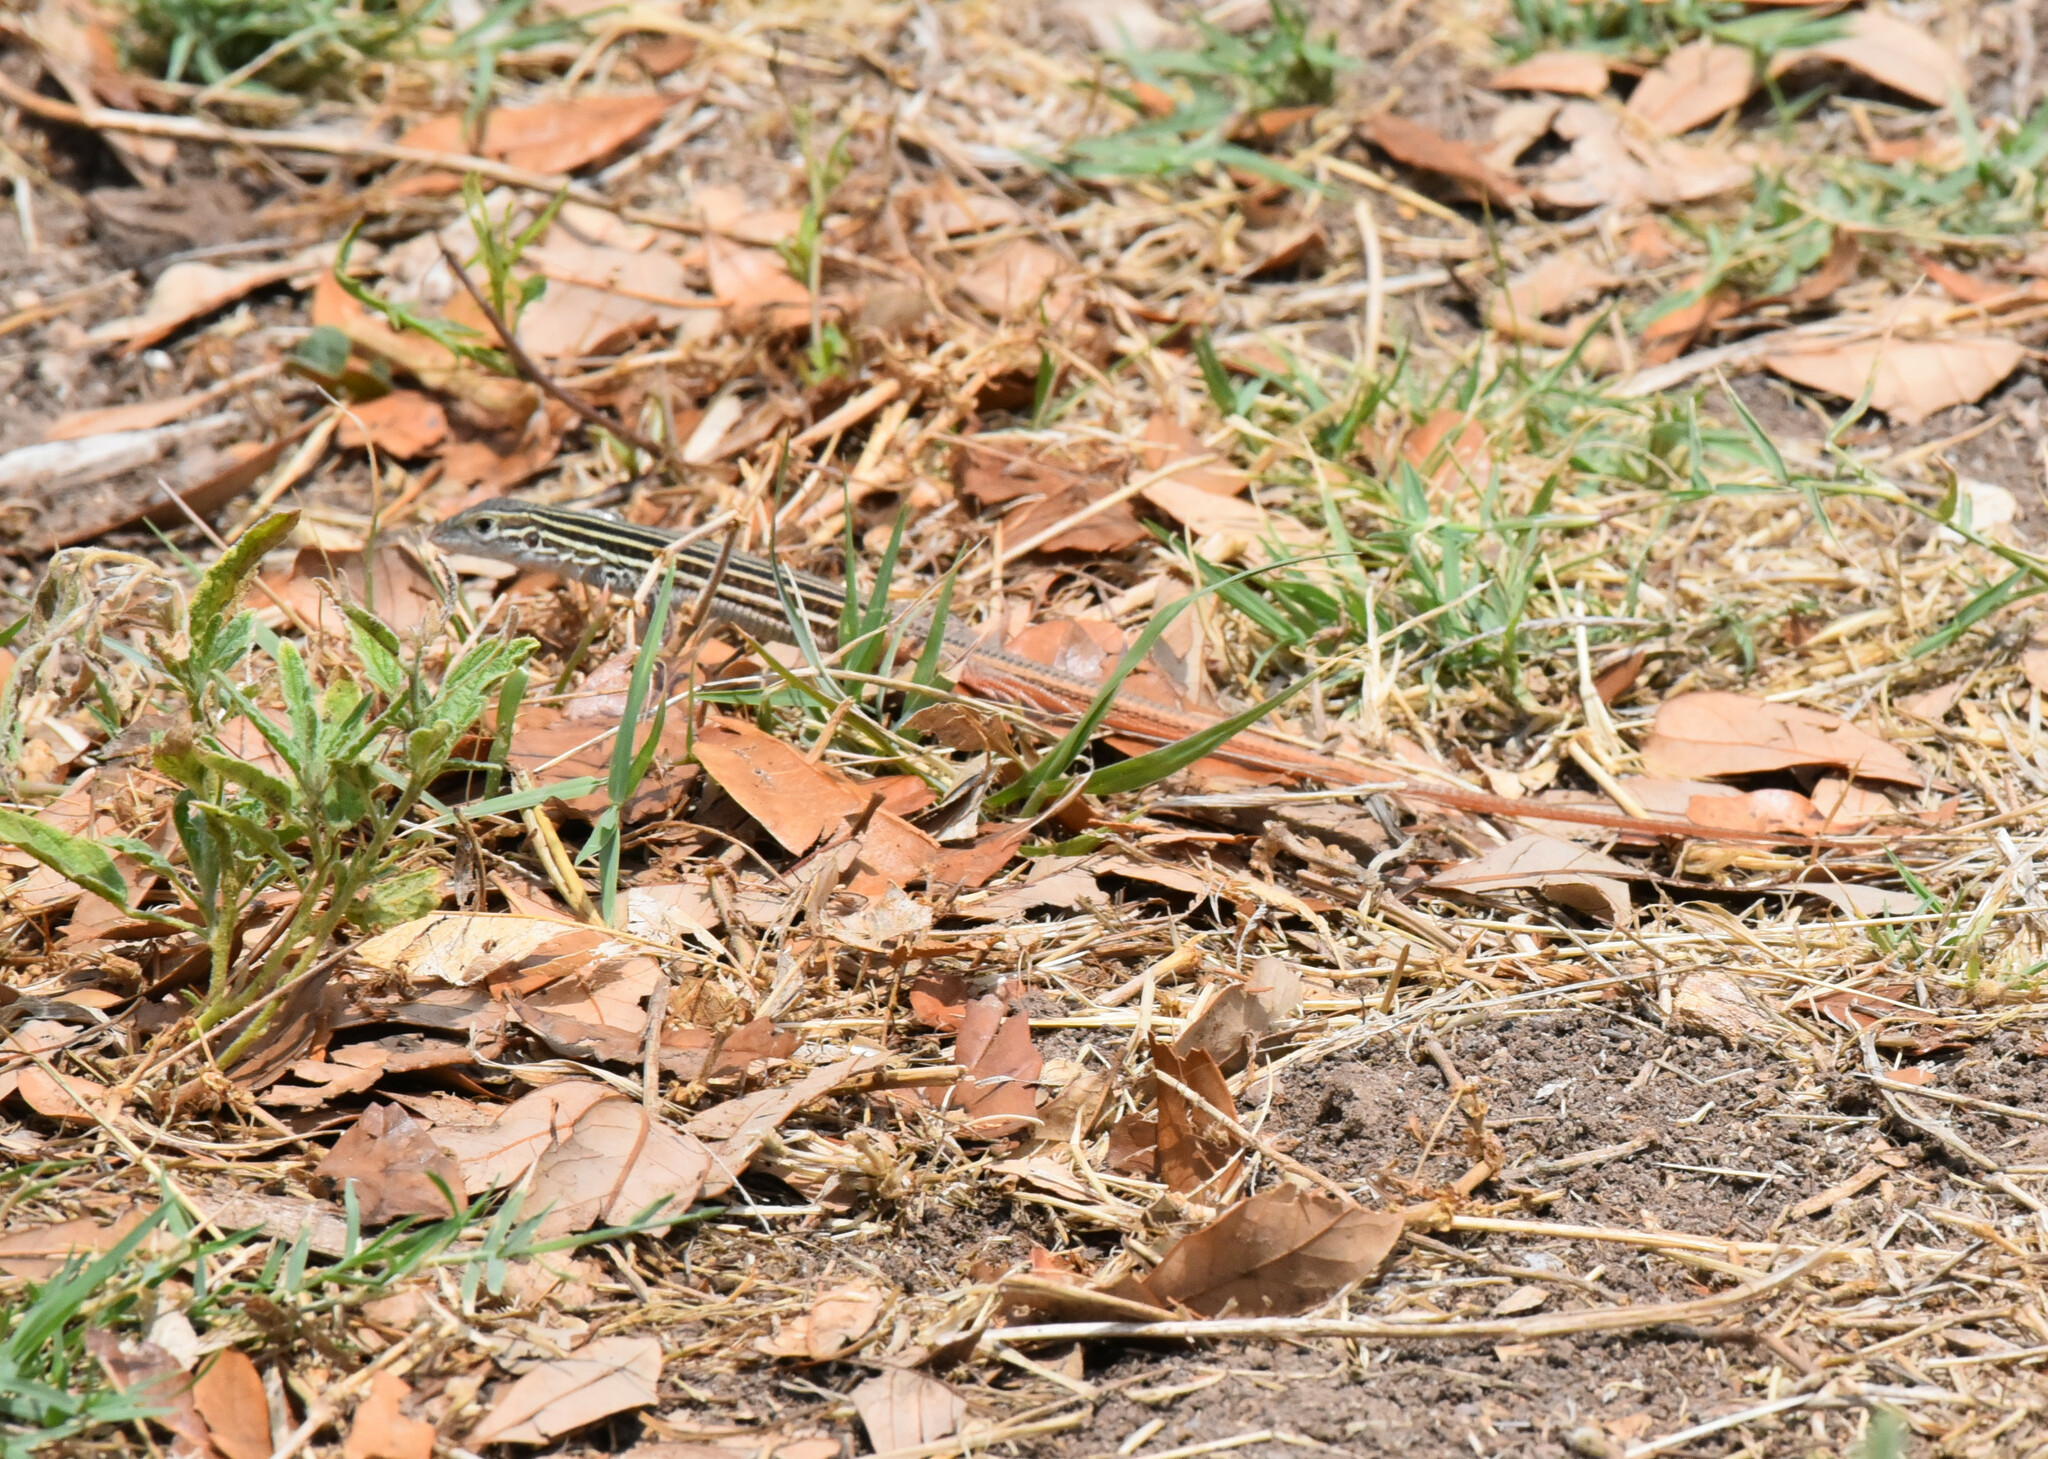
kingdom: Animalia
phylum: Chordata
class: Squamata
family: Teiidae
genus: Aspidoscelis
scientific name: Aspidoscelis gularis
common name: Eastern spotted whiptail
